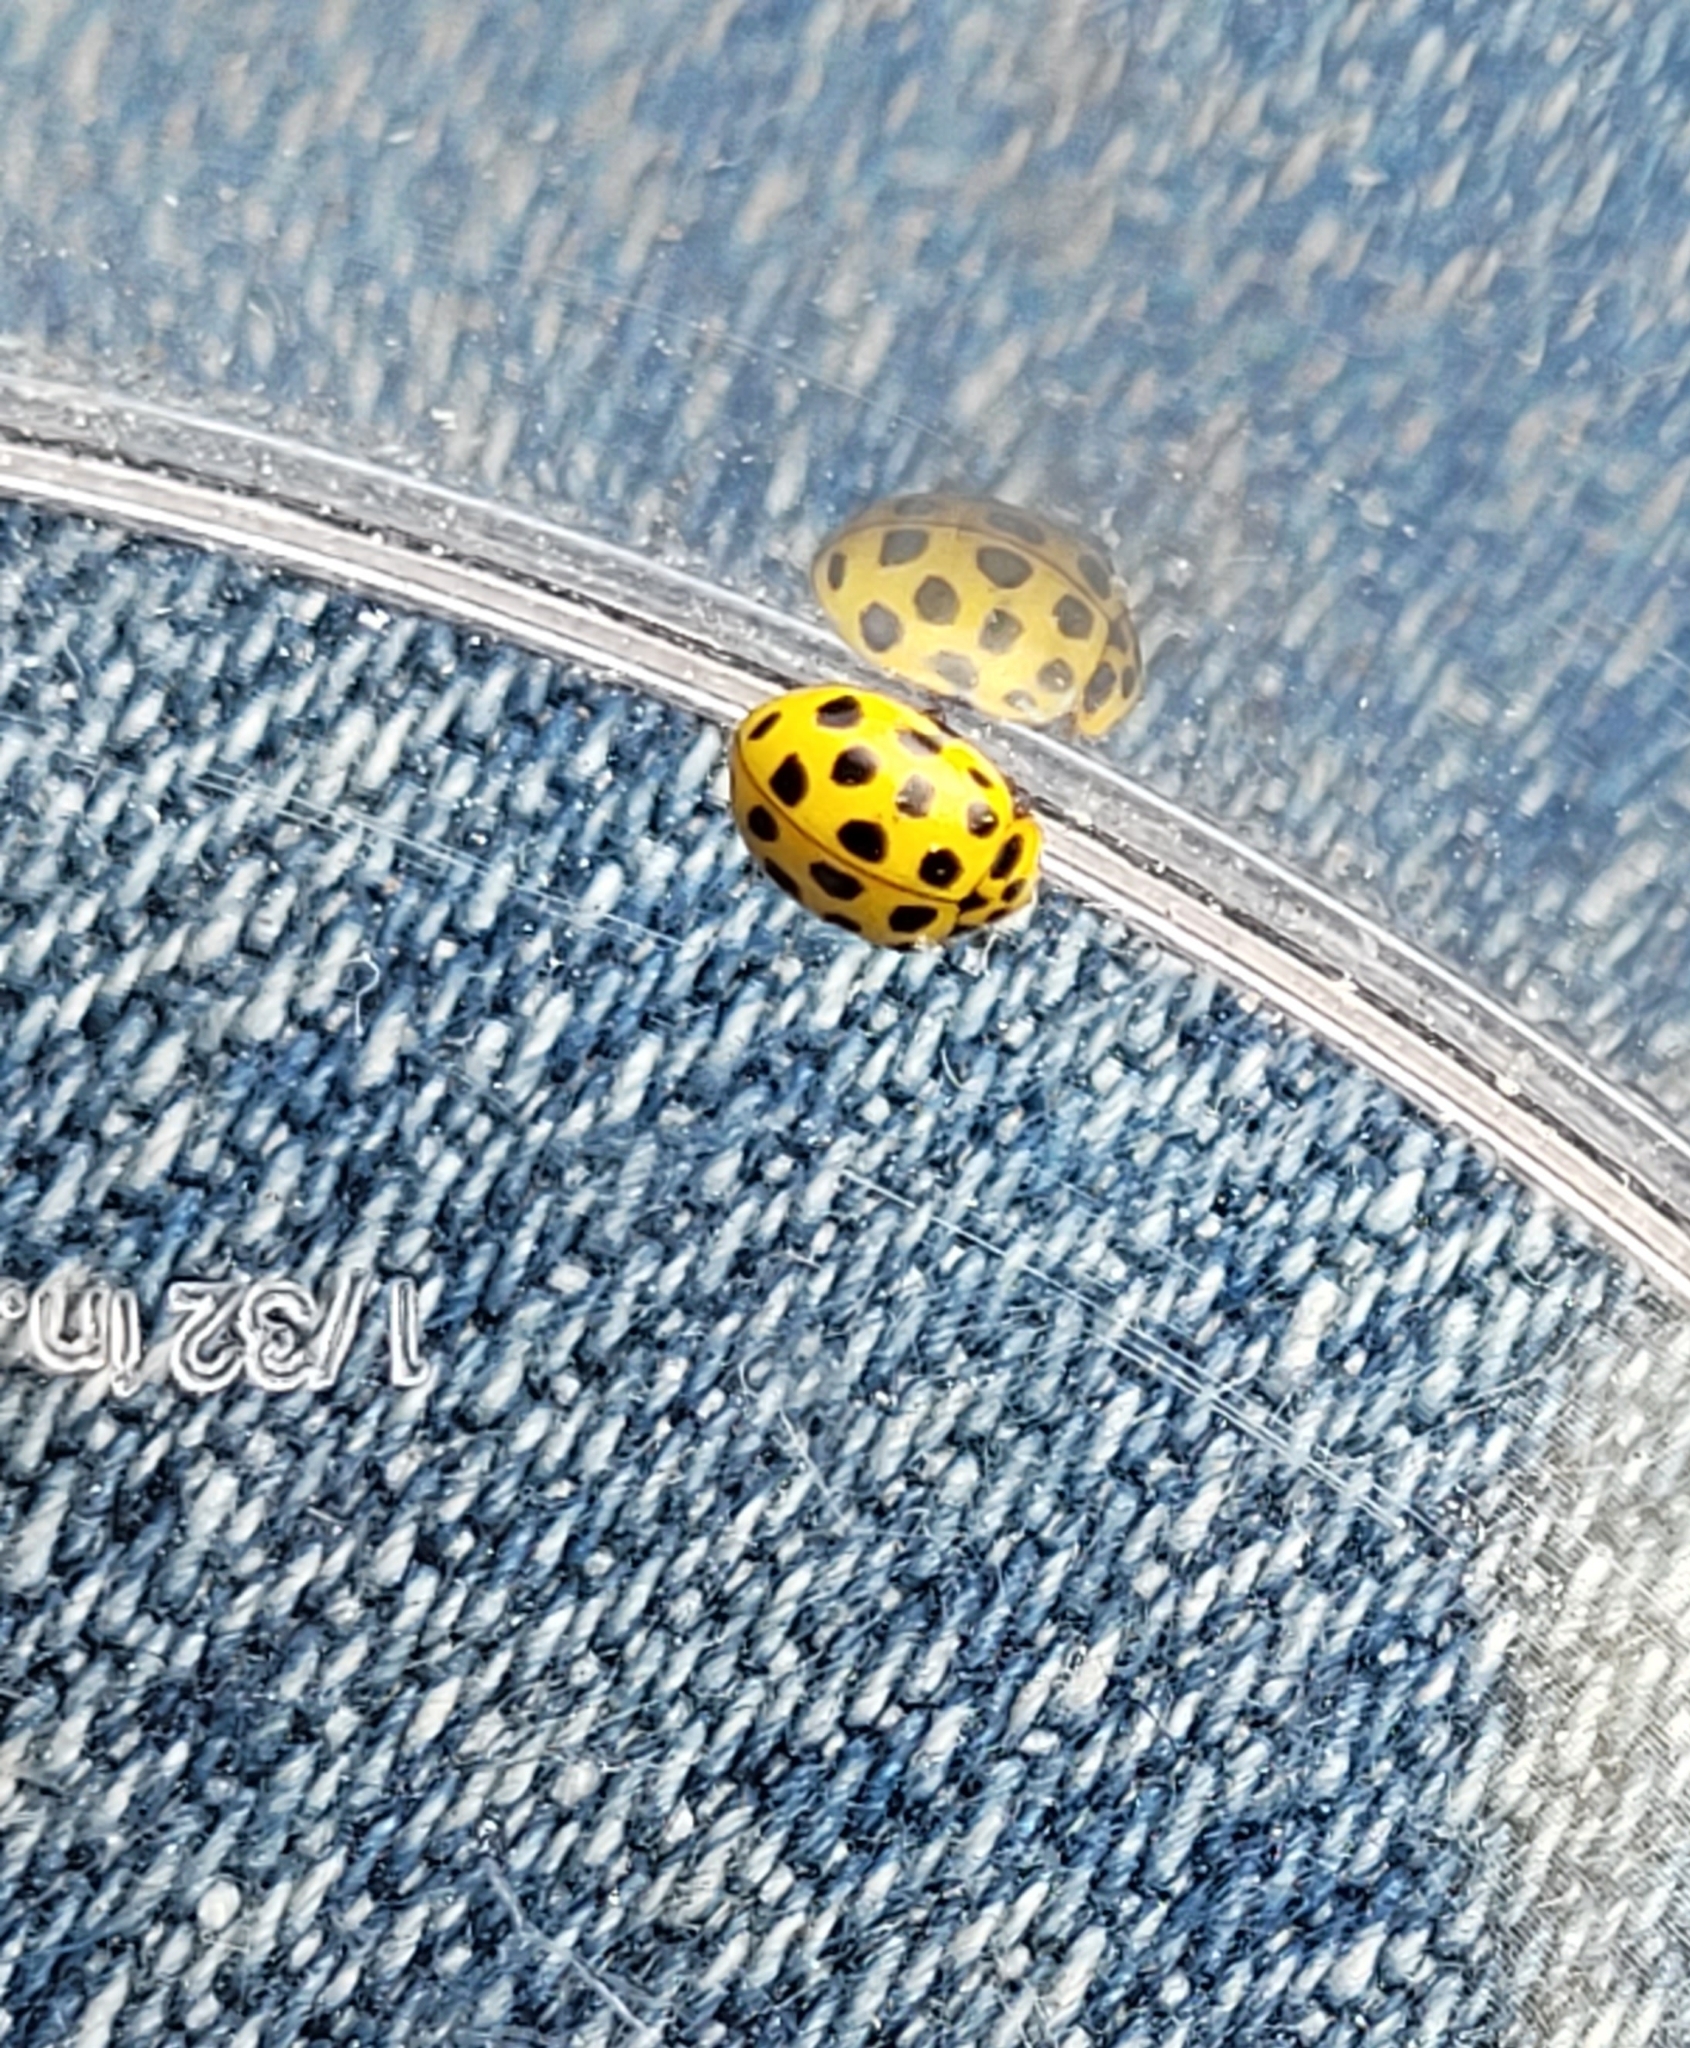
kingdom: Animalia
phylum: Arthropoda
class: Insecta
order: Coleoptera
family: Coccinellidae
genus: Psyllobora
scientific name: Psyllobora vigintiduopunctata
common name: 22-spot ladybird
